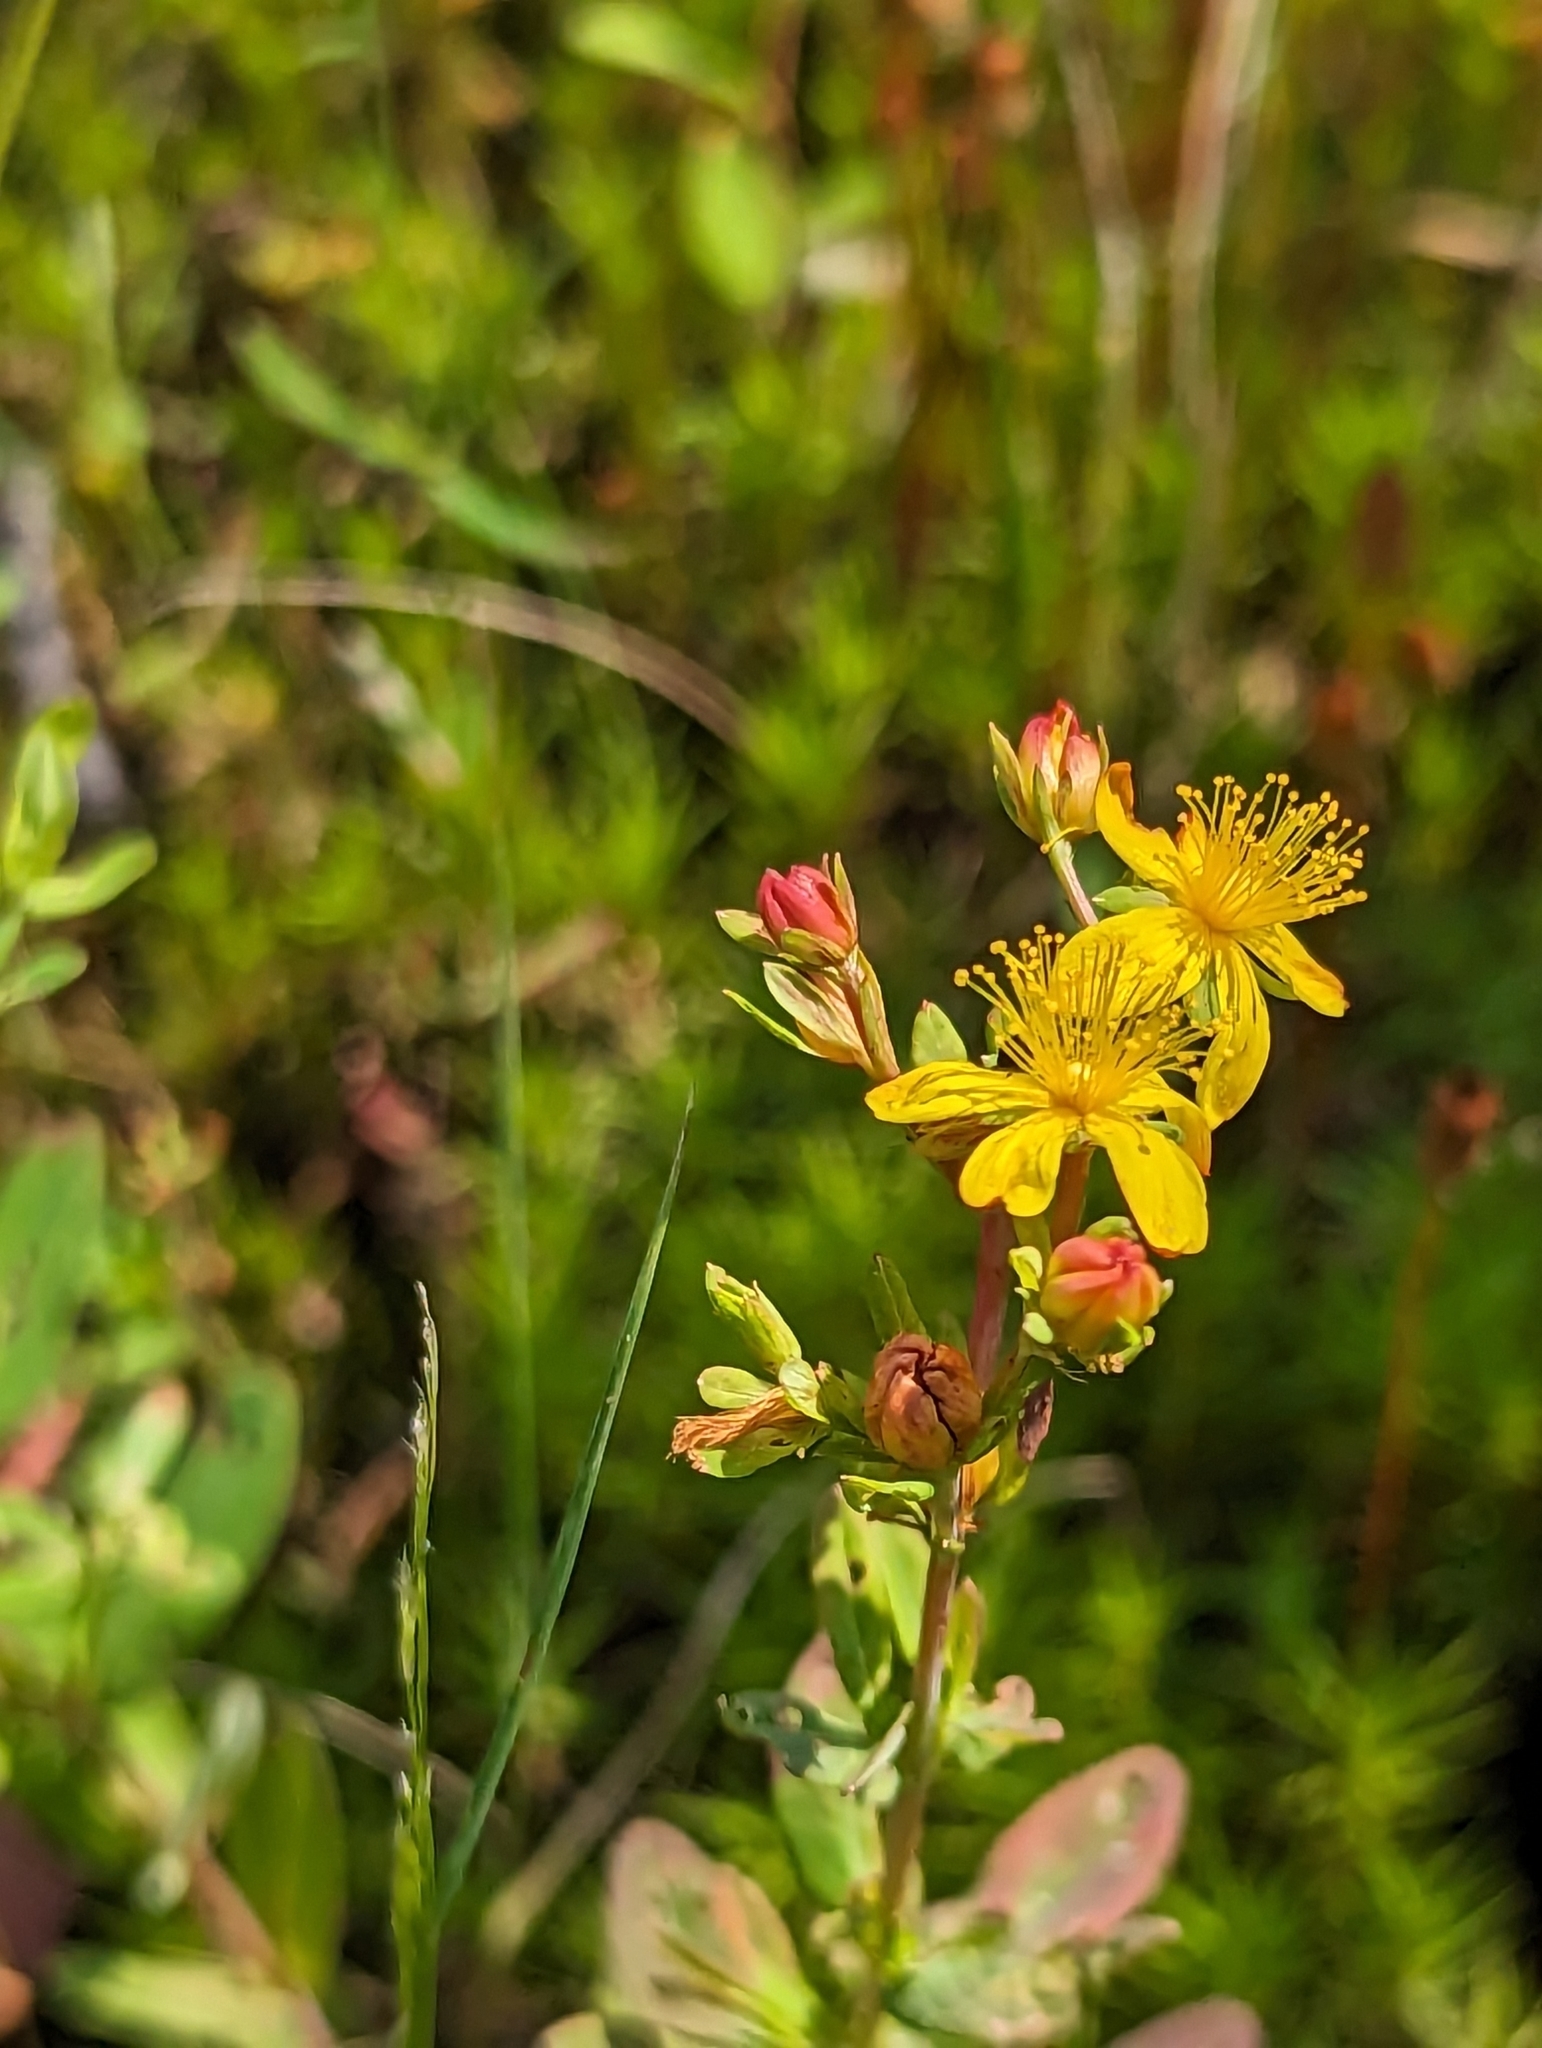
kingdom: Plantae
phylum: Tracheophyta
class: Magnoliopsida
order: Malpighiales
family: Hypericaceae
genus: Hypericum
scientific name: Hypericum ellipticum
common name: Elliptic st. john's-wort
